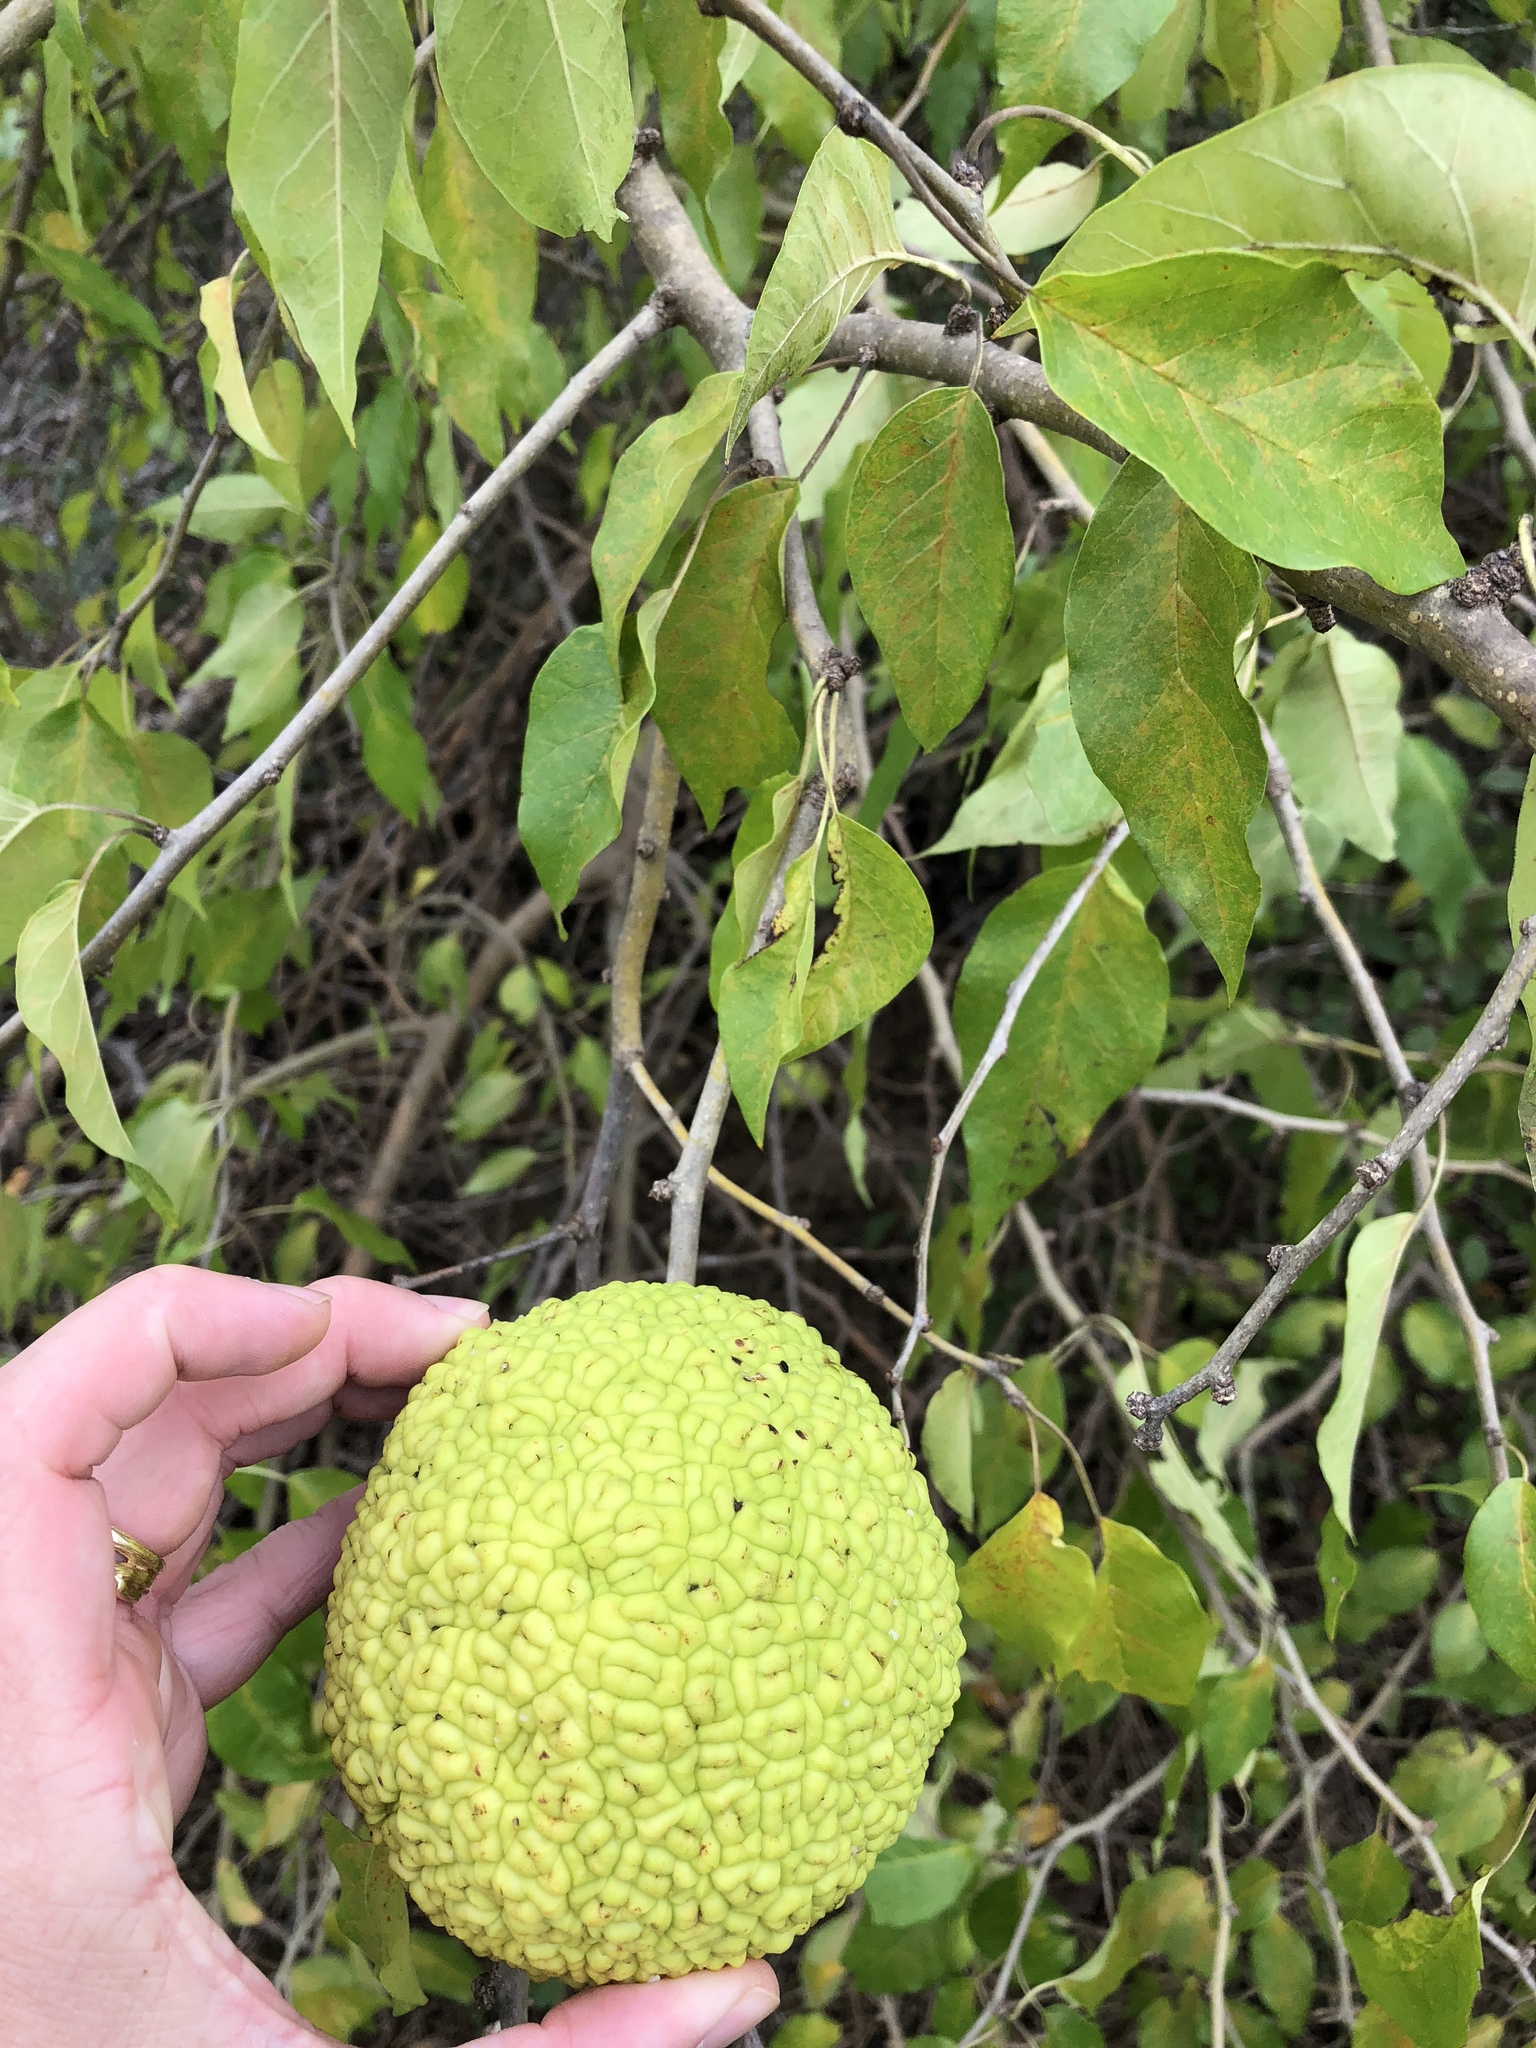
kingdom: Plantae
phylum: Tracheophyta
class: Magnoliopsida
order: Rosales
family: Moraceae
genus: Maclura
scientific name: Maclura pomifera
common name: Osage-orange
